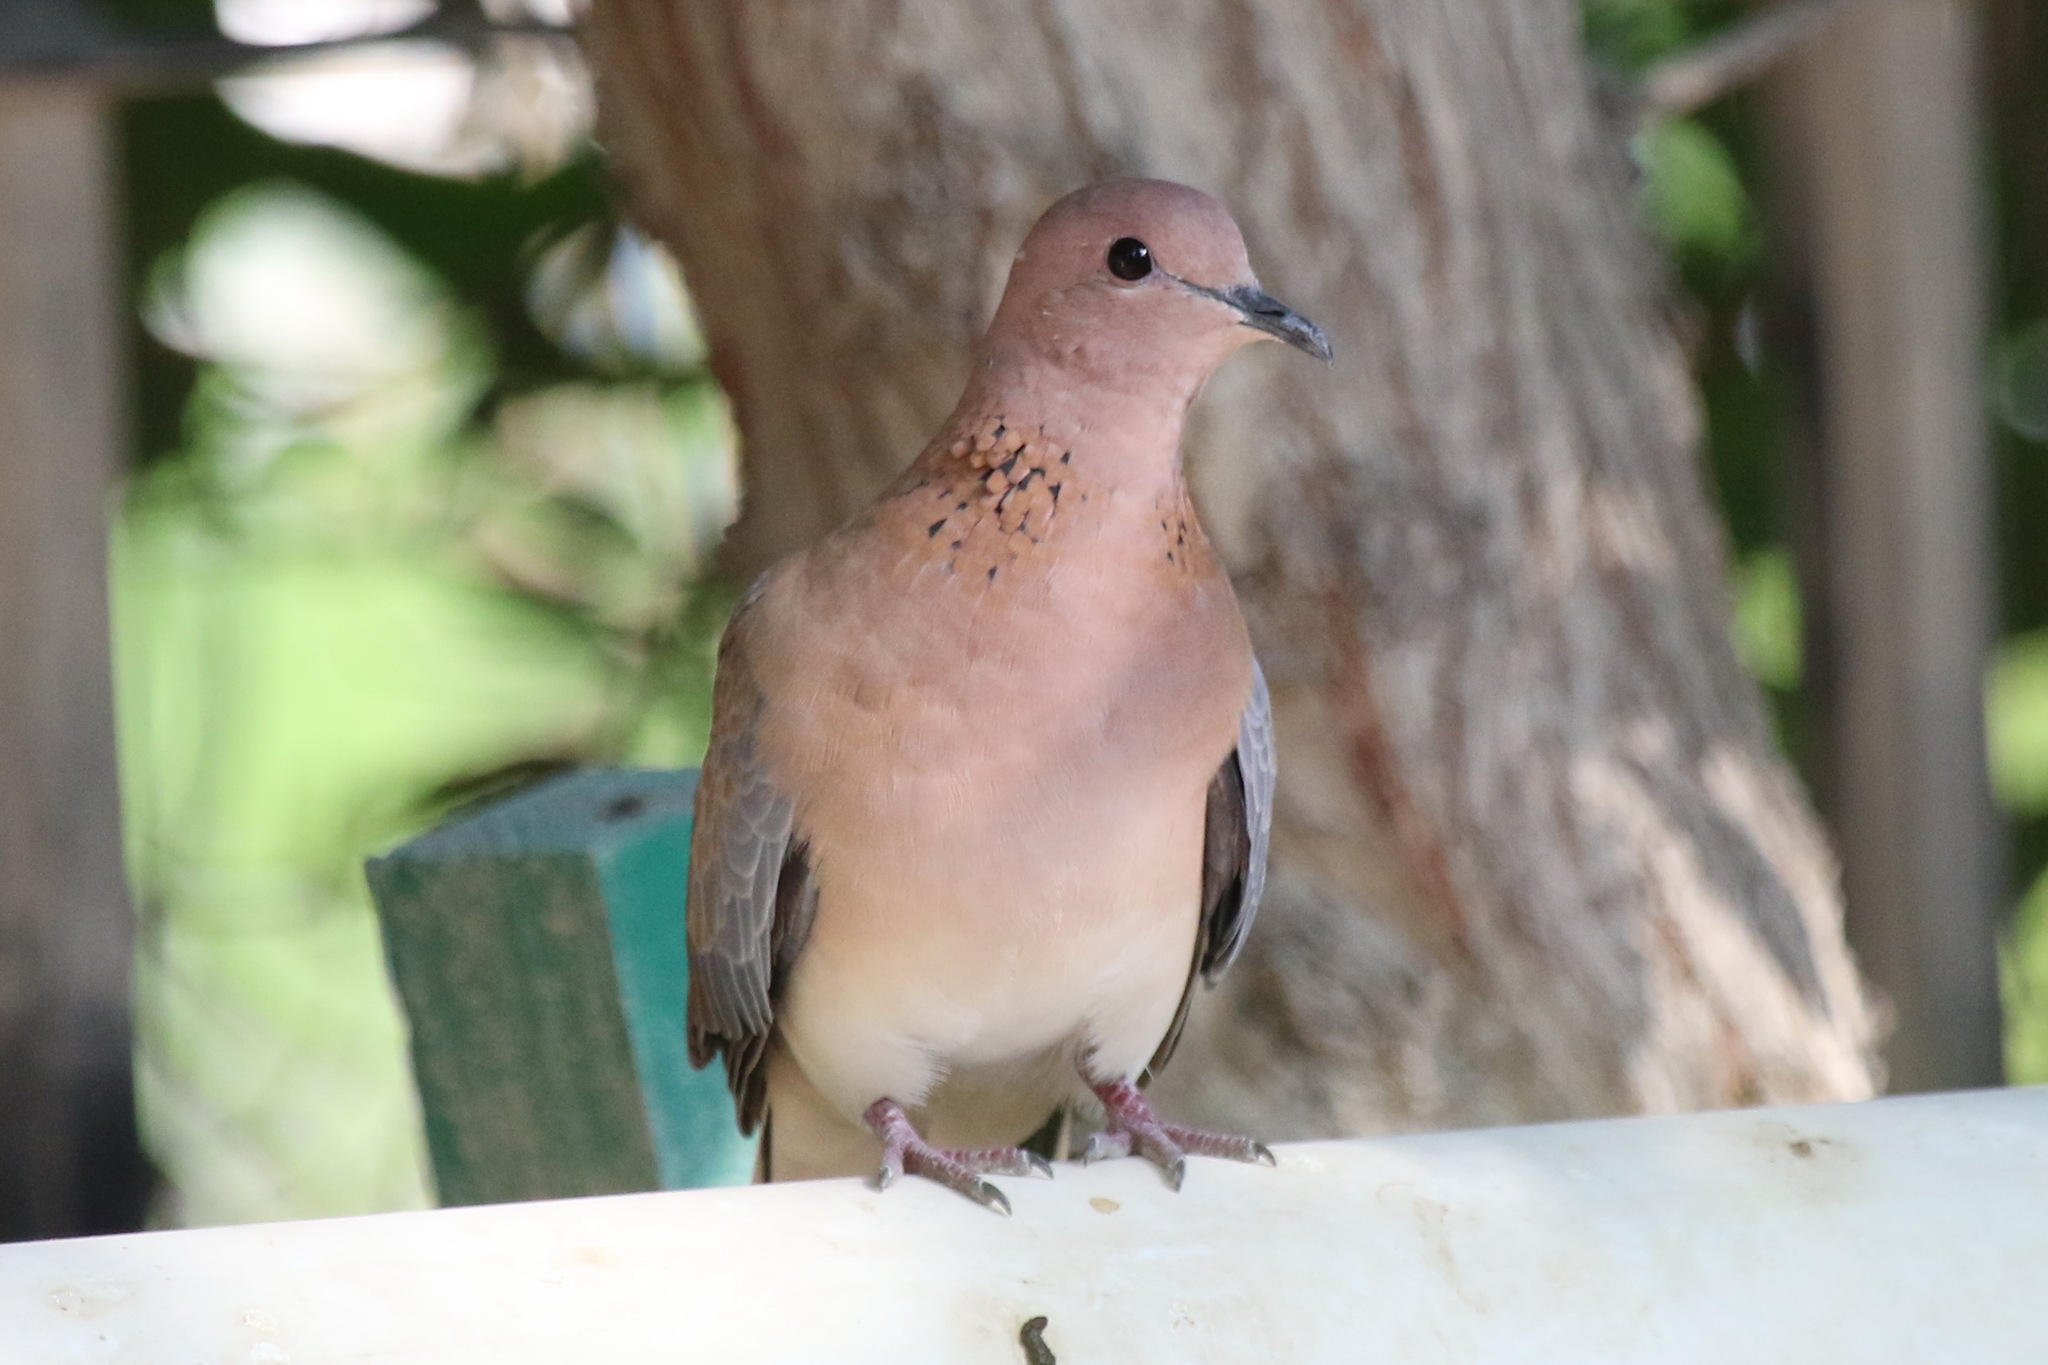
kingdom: Animalia
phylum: Chordata
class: Aves
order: Columbiformes
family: Columbidae
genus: Spilopelia
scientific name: Spilopelia senegalensis
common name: Laughing dove
